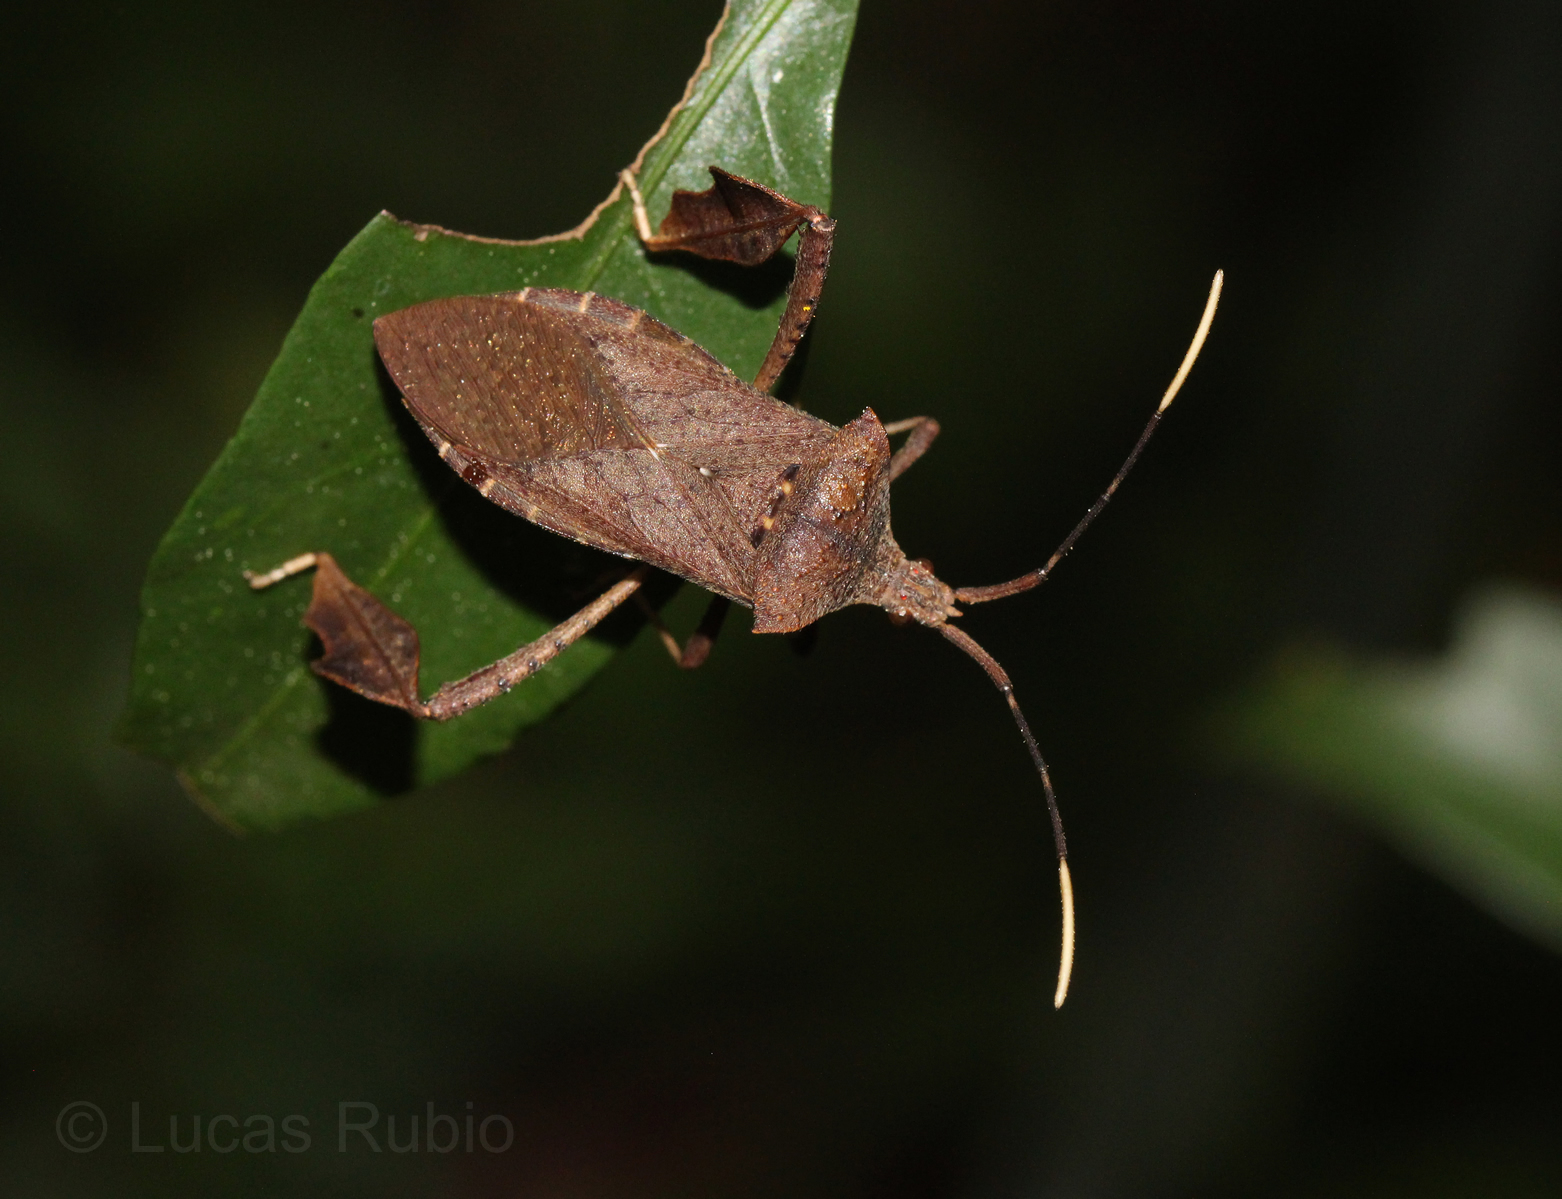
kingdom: Animalia
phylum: Arthropoda
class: Insecta
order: Hemiptera
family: Coreidae
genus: Empedocles
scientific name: Empedocles luridus
